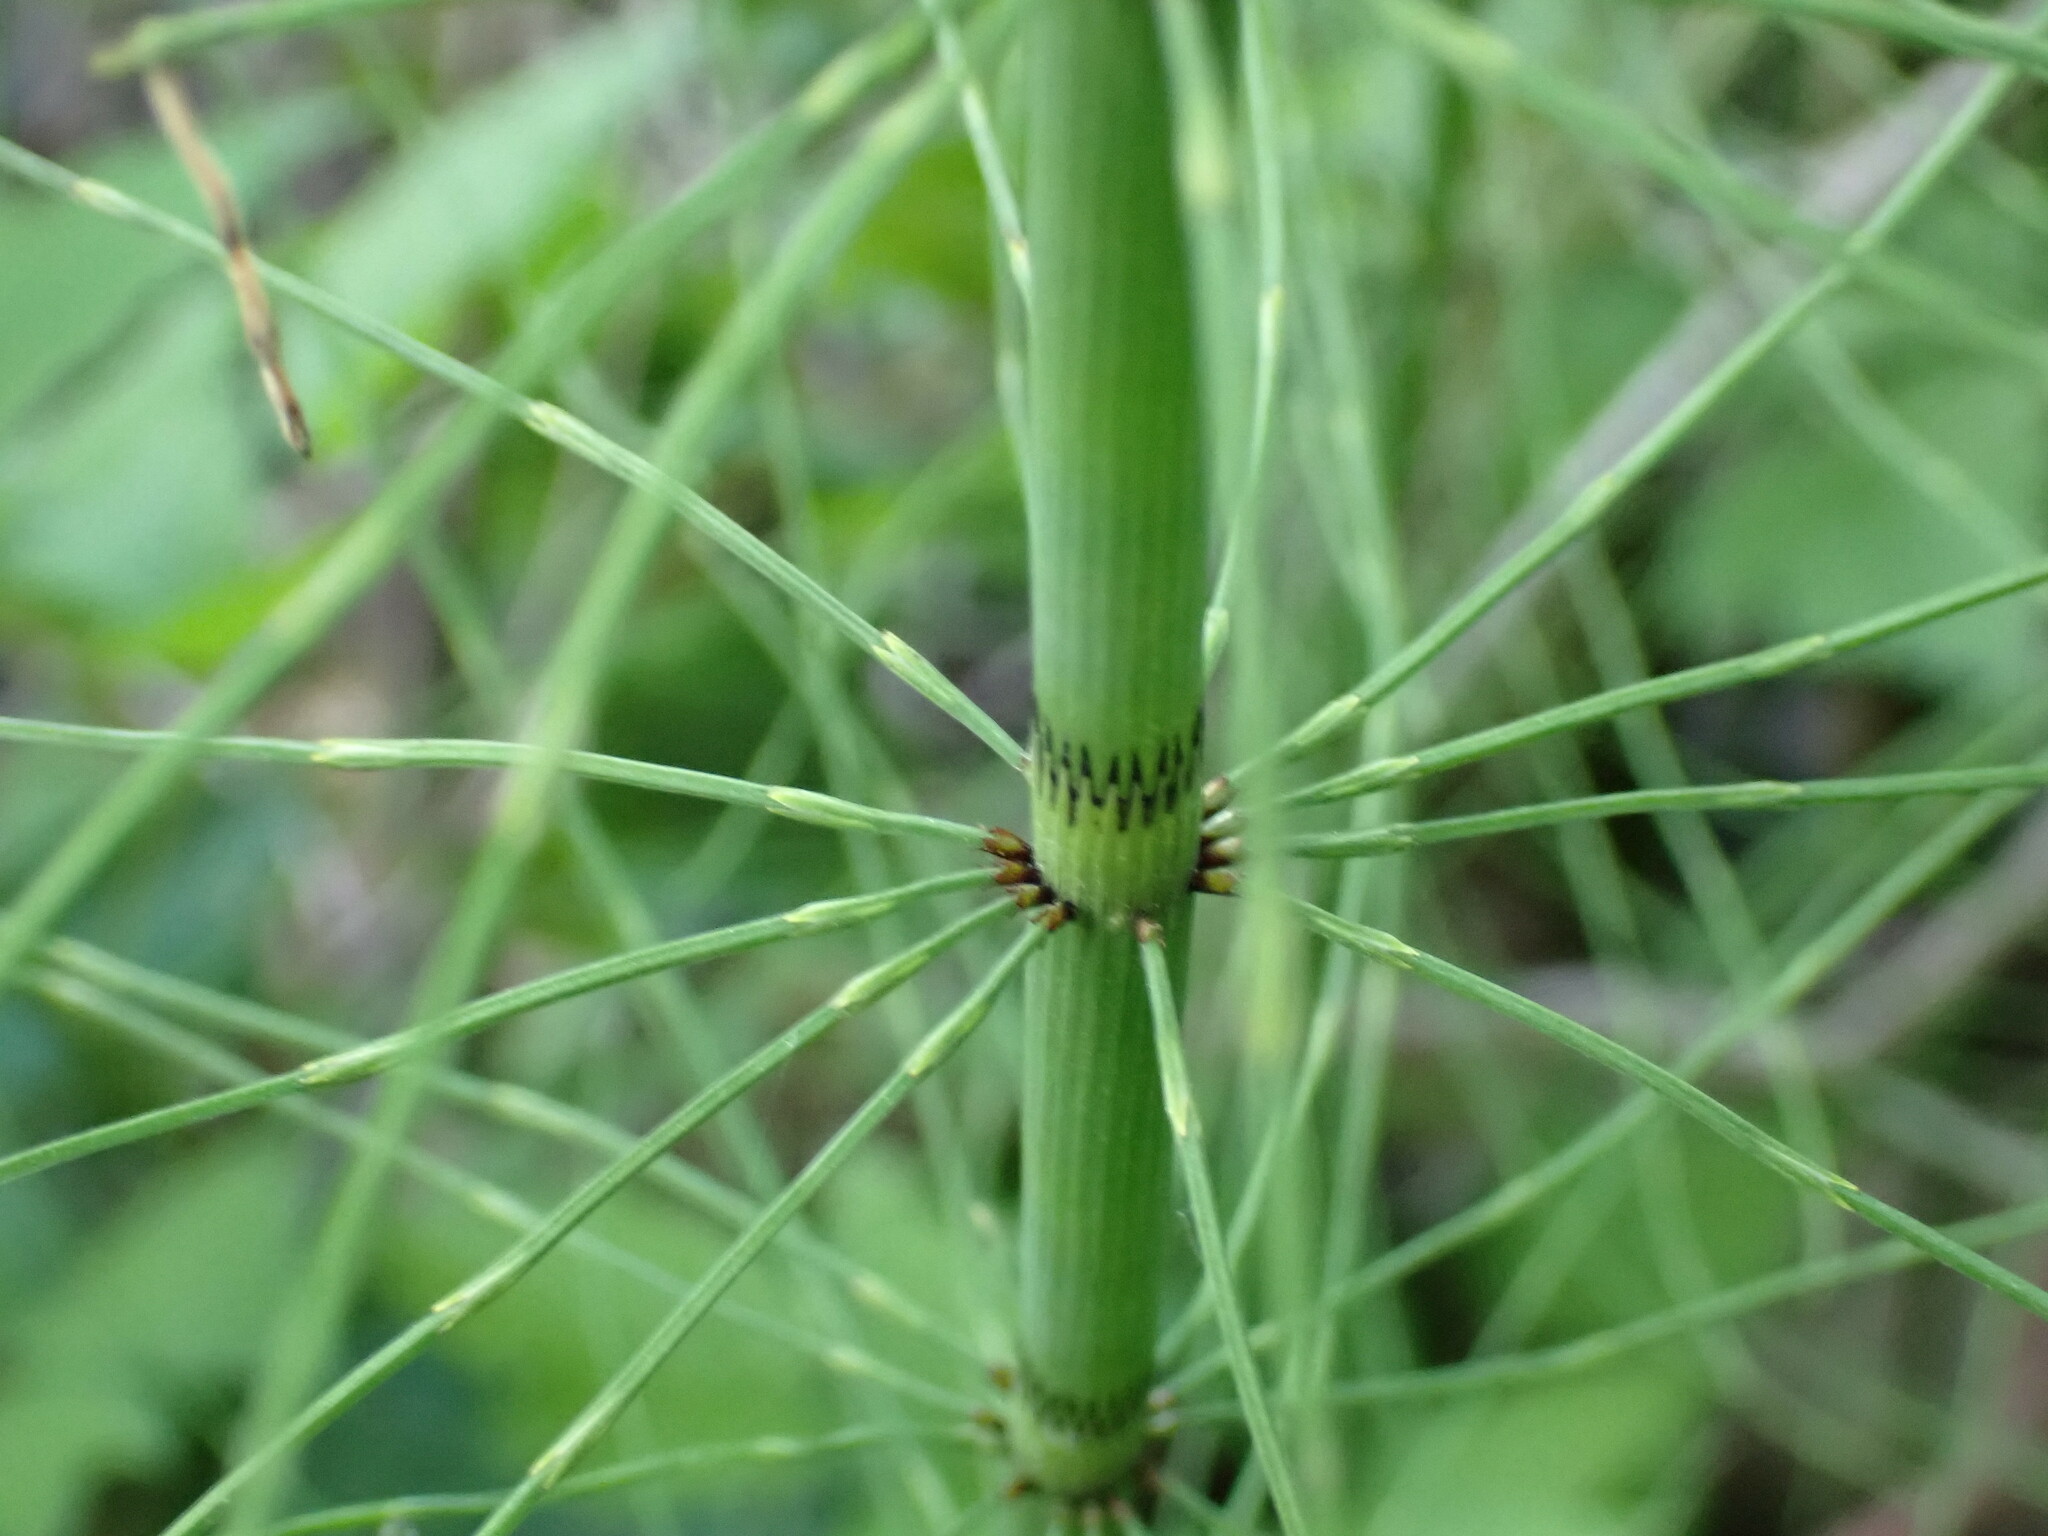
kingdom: Plantae
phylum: Tracheophyta
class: Polypodiopsida
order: Equisetales
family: Equisetaceae
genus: Equisetum
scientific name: Equisetum fluviatile
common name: Water horsetail
